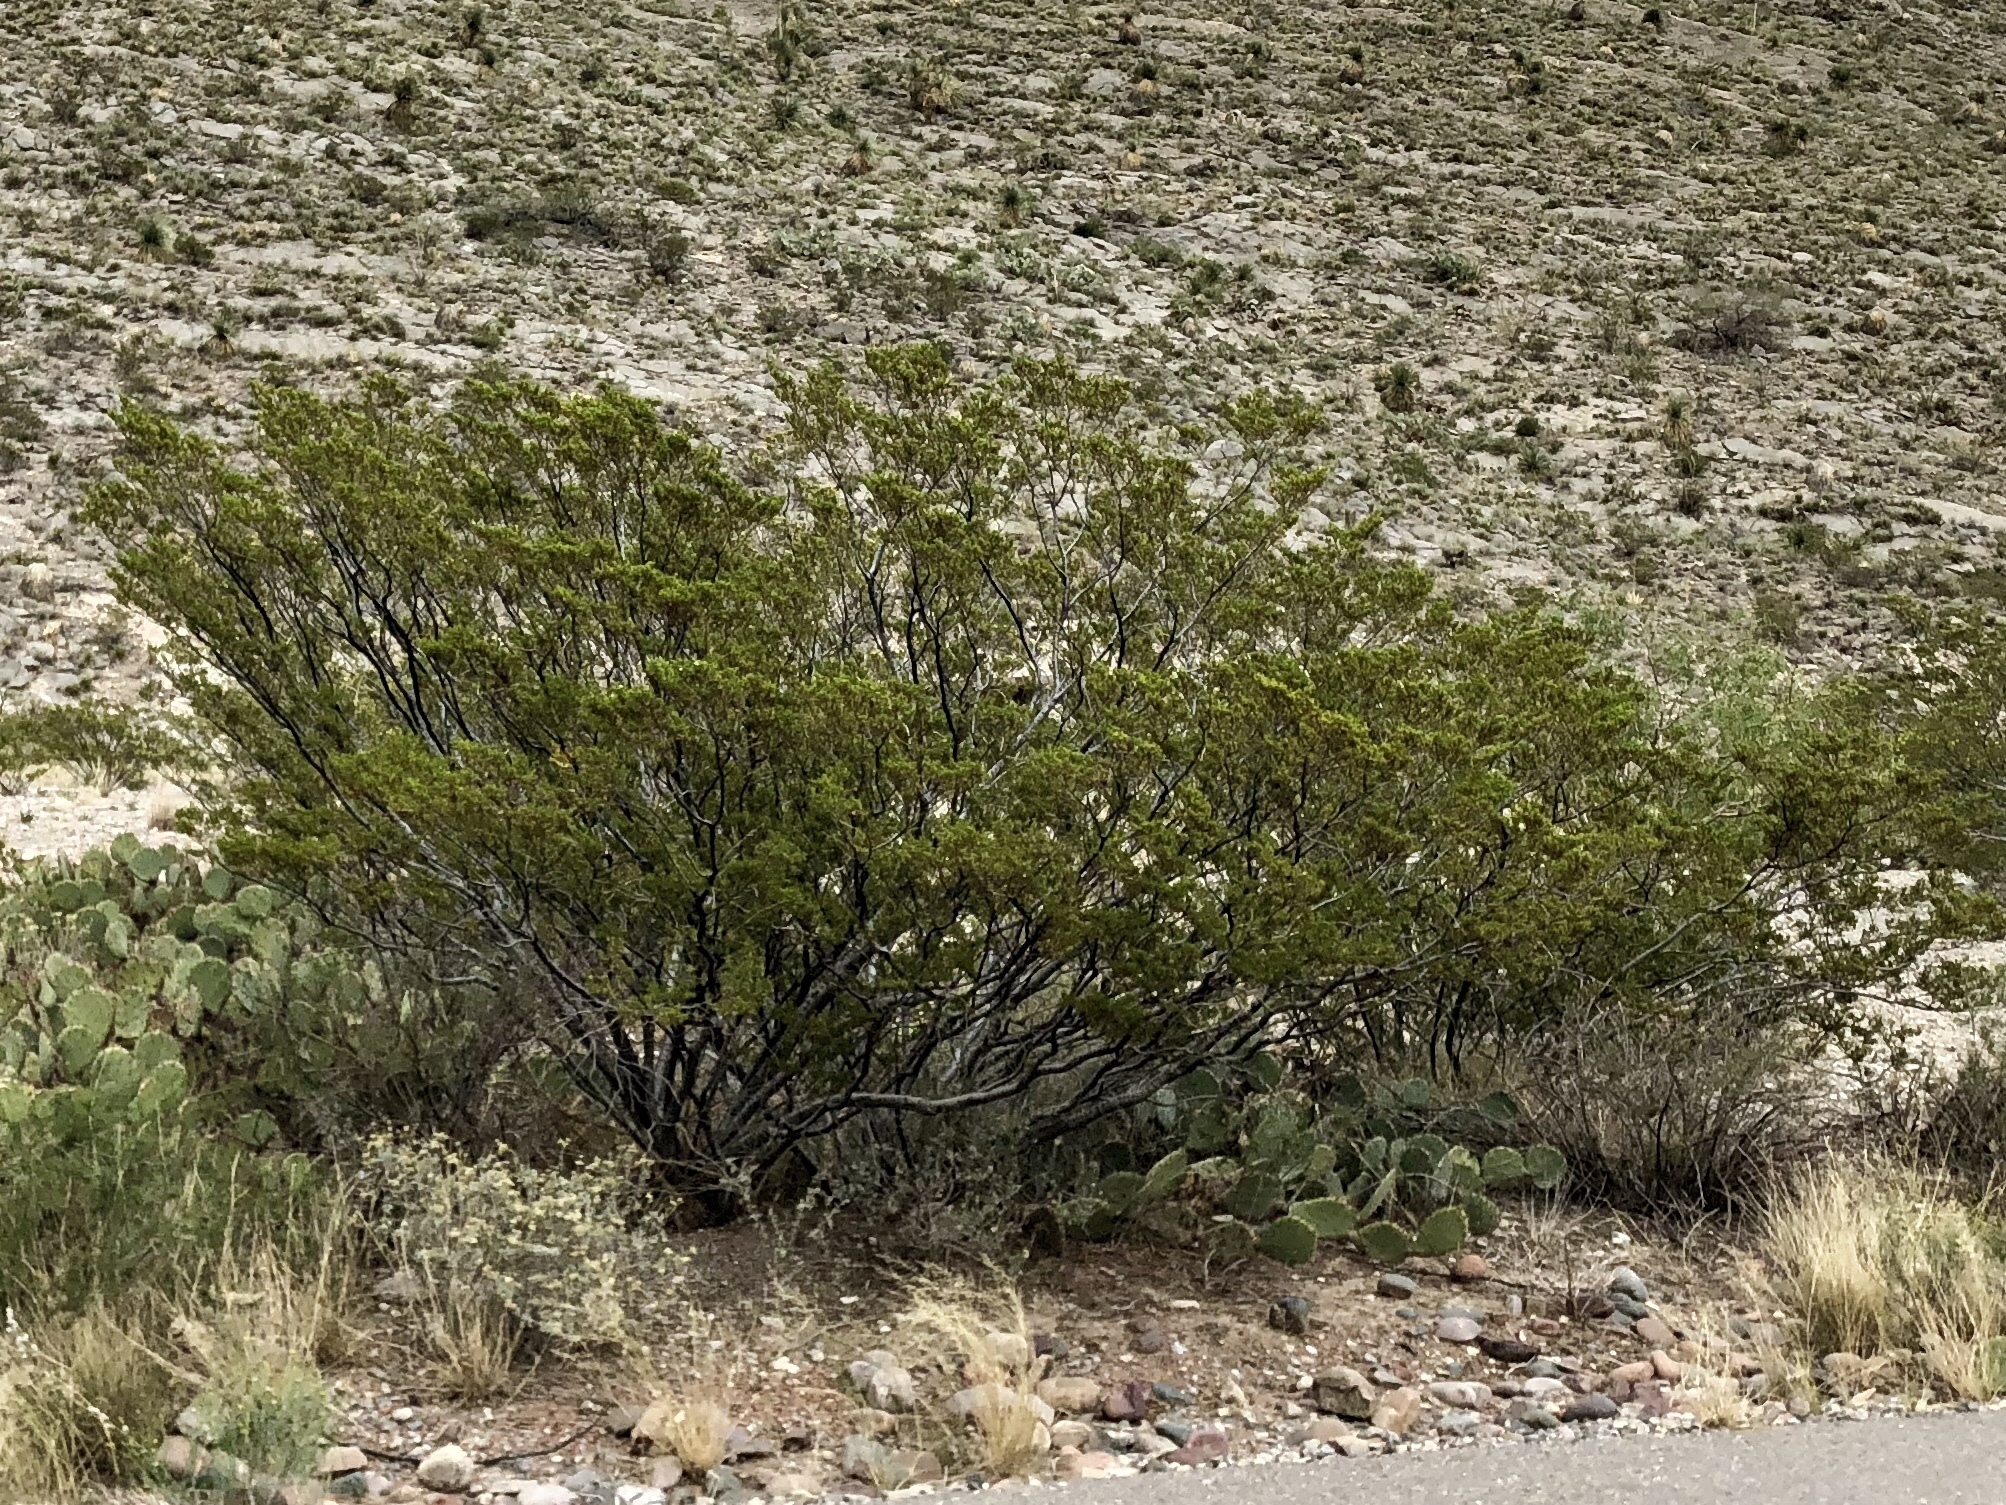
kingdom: Plantae
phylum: Tracheophyta
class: Magnoliopsida
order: Zygophyllales
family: Zygophyllaceae
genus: Larrea
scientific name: Larrea tridentata
